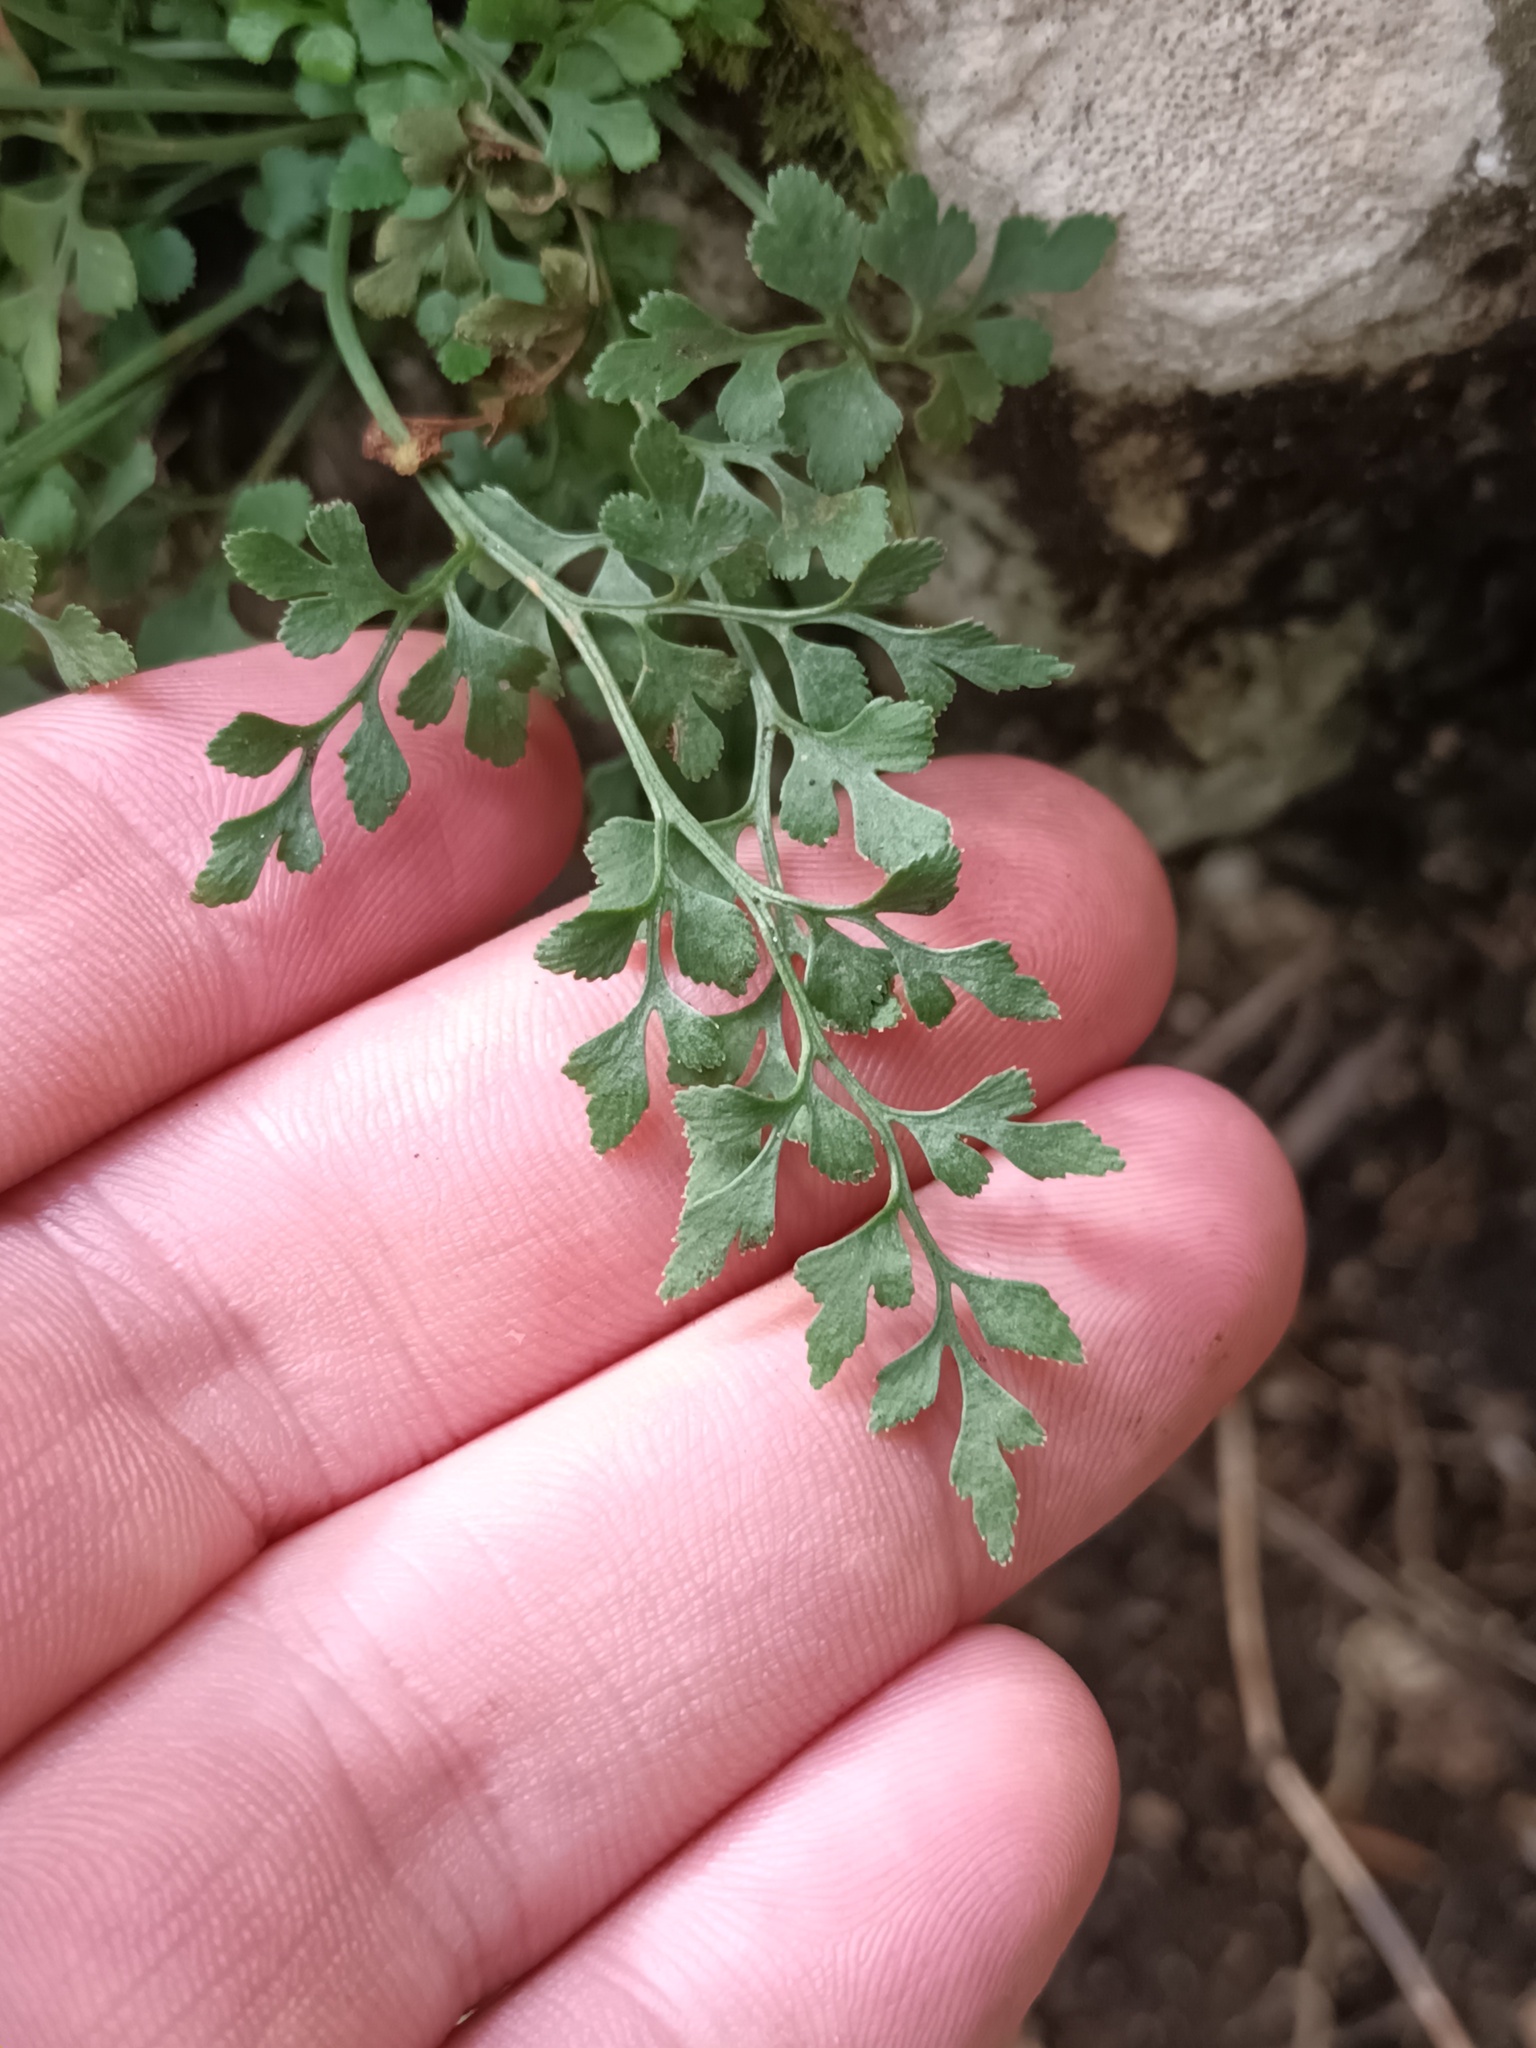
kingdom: Plantae
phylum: Tracheophyta
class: Polypodiopsida
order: Polypodiales
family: Aspleniaceae
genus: Asplenium
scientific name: Asplenium ruta-muraria
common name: Wall-rue
